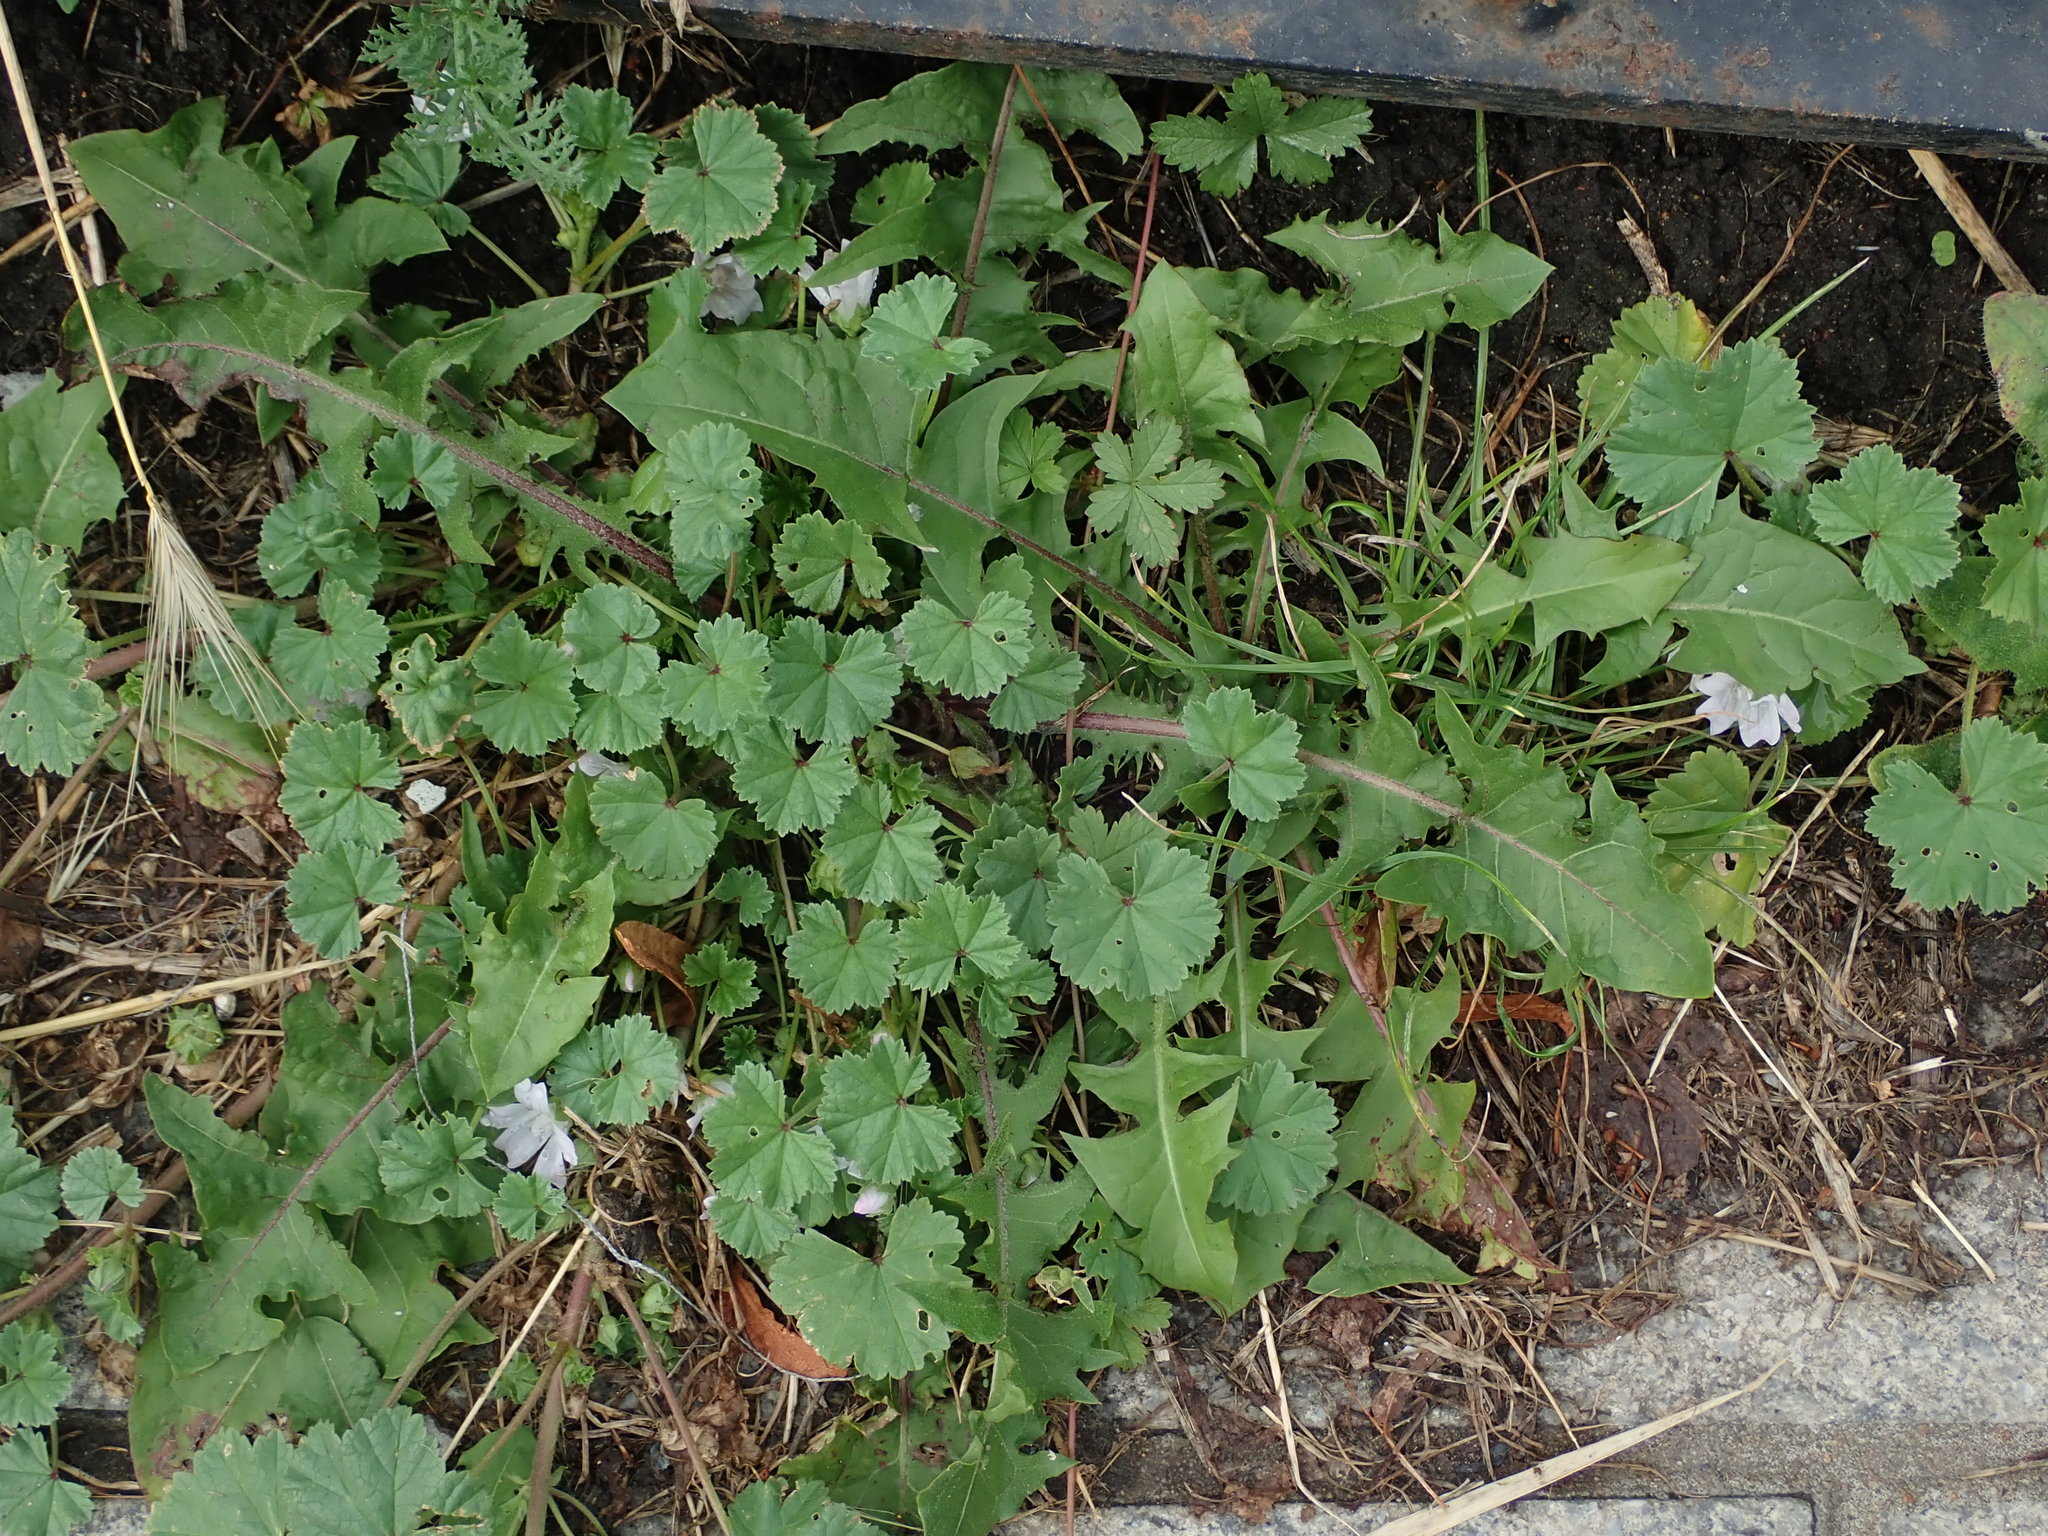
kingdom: Plantae
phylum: Tracheophyta
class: Magnoliopsida
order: Malvales
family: Malvaceae
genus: Malva
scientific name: Malva neglecta
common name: Common mallow
